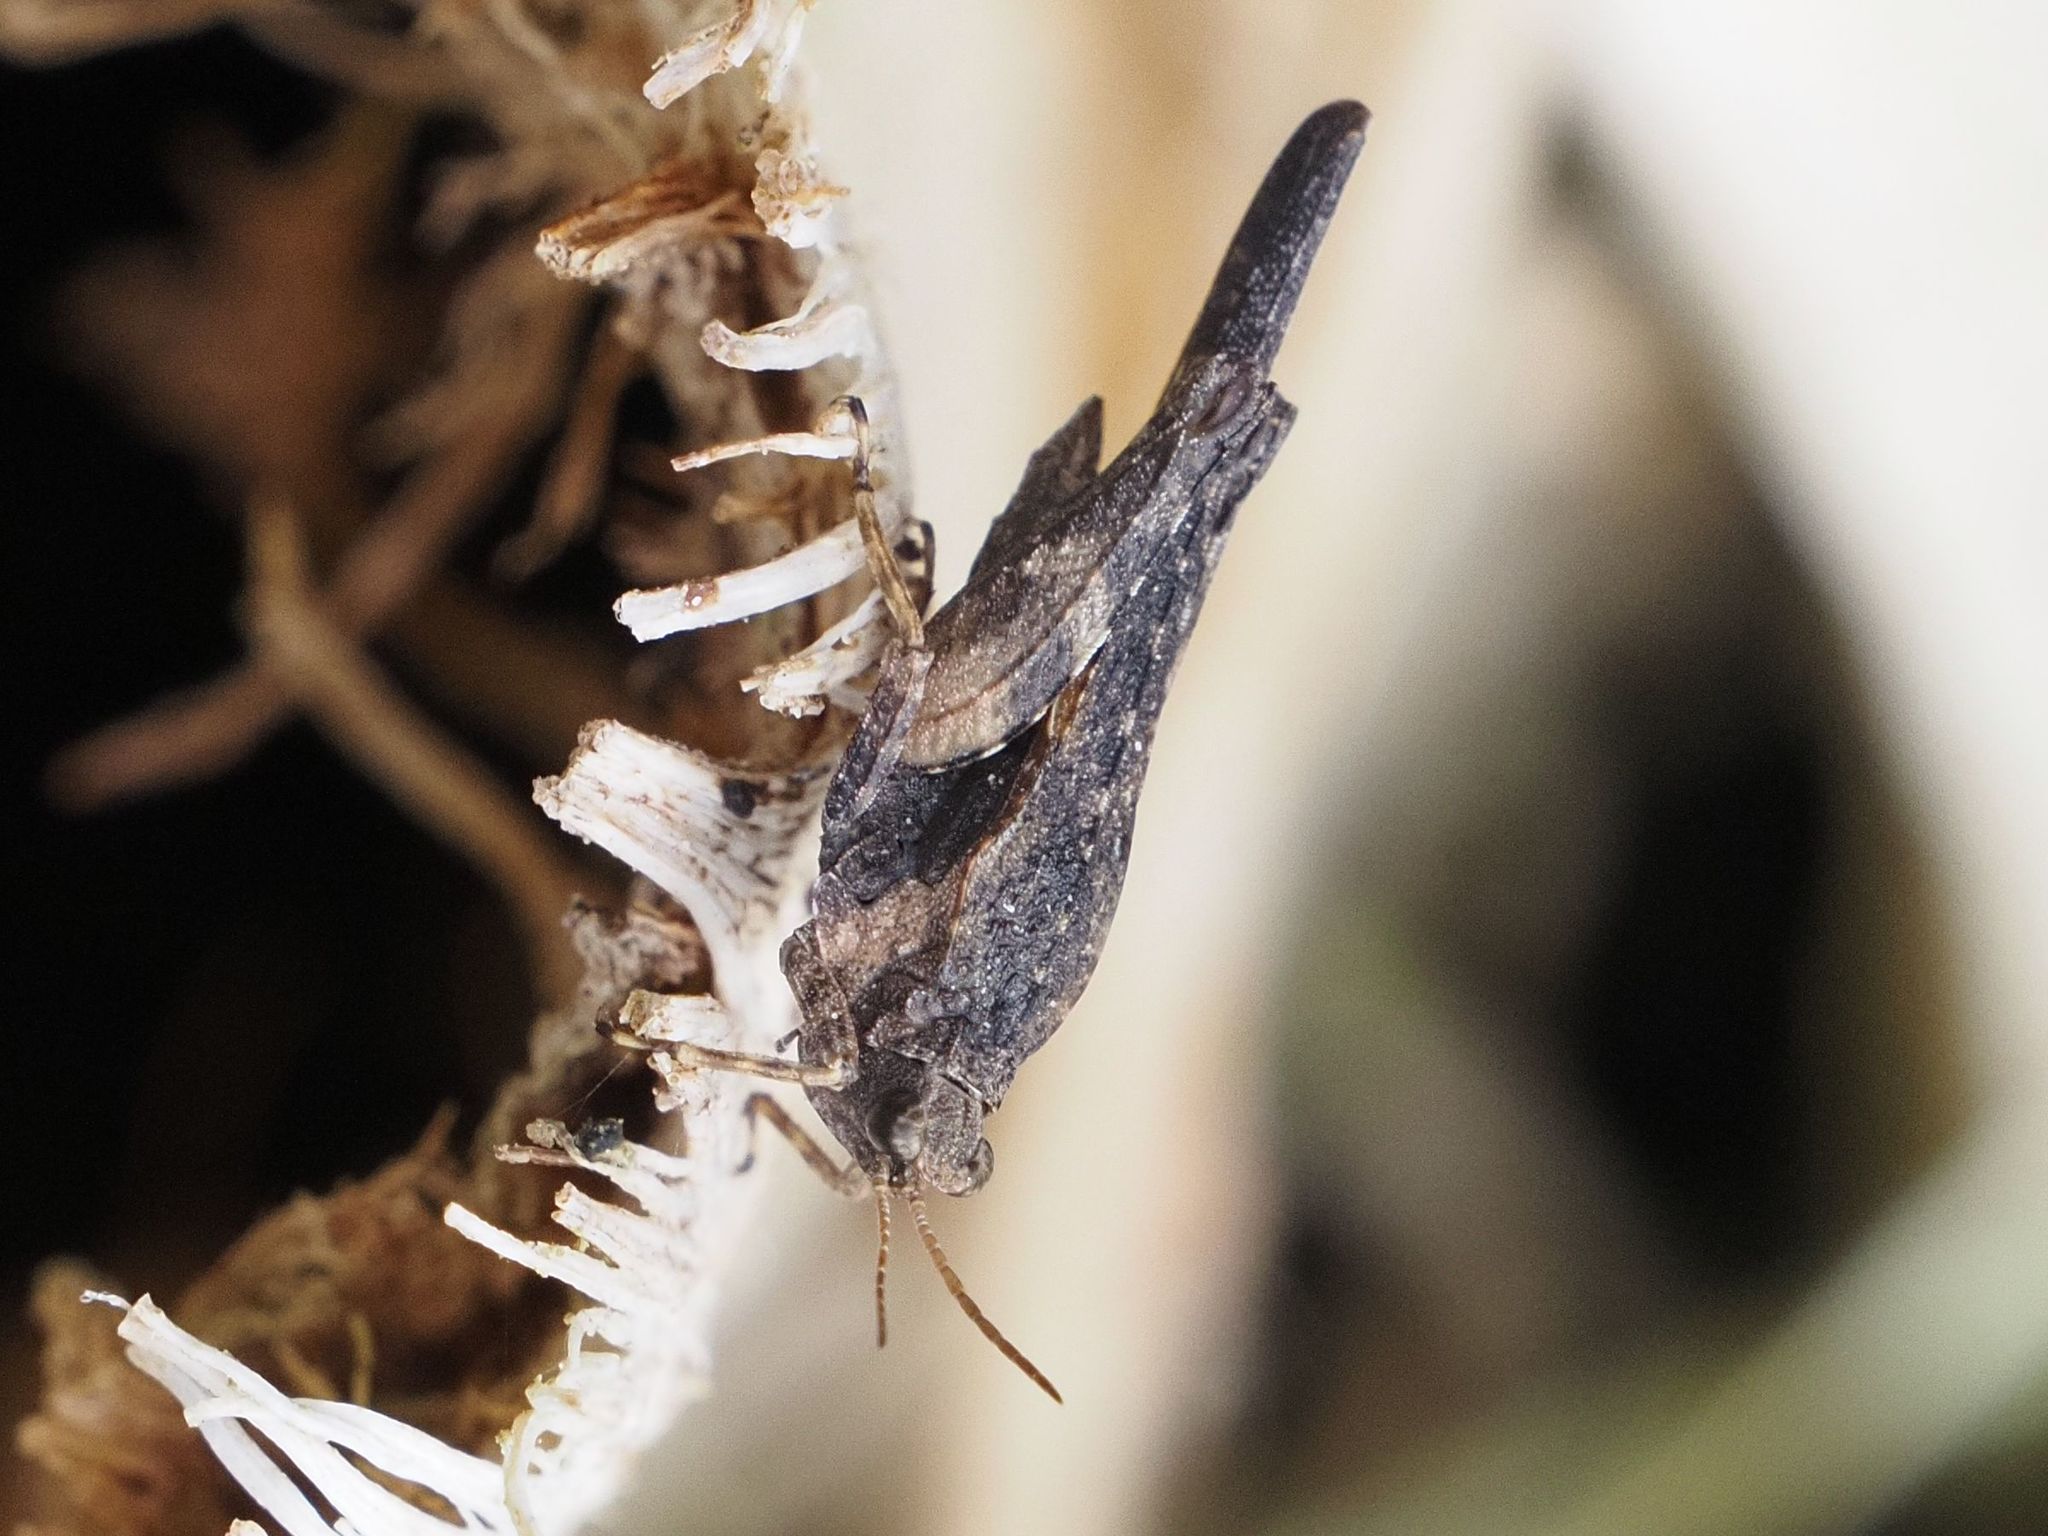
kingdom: Animalia
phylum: Arthropoda
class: Insecta
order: Orthoptera
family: Tetrigidae
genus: Tetrix
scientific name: Tetrix subulata
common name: Slender ground-hopper
